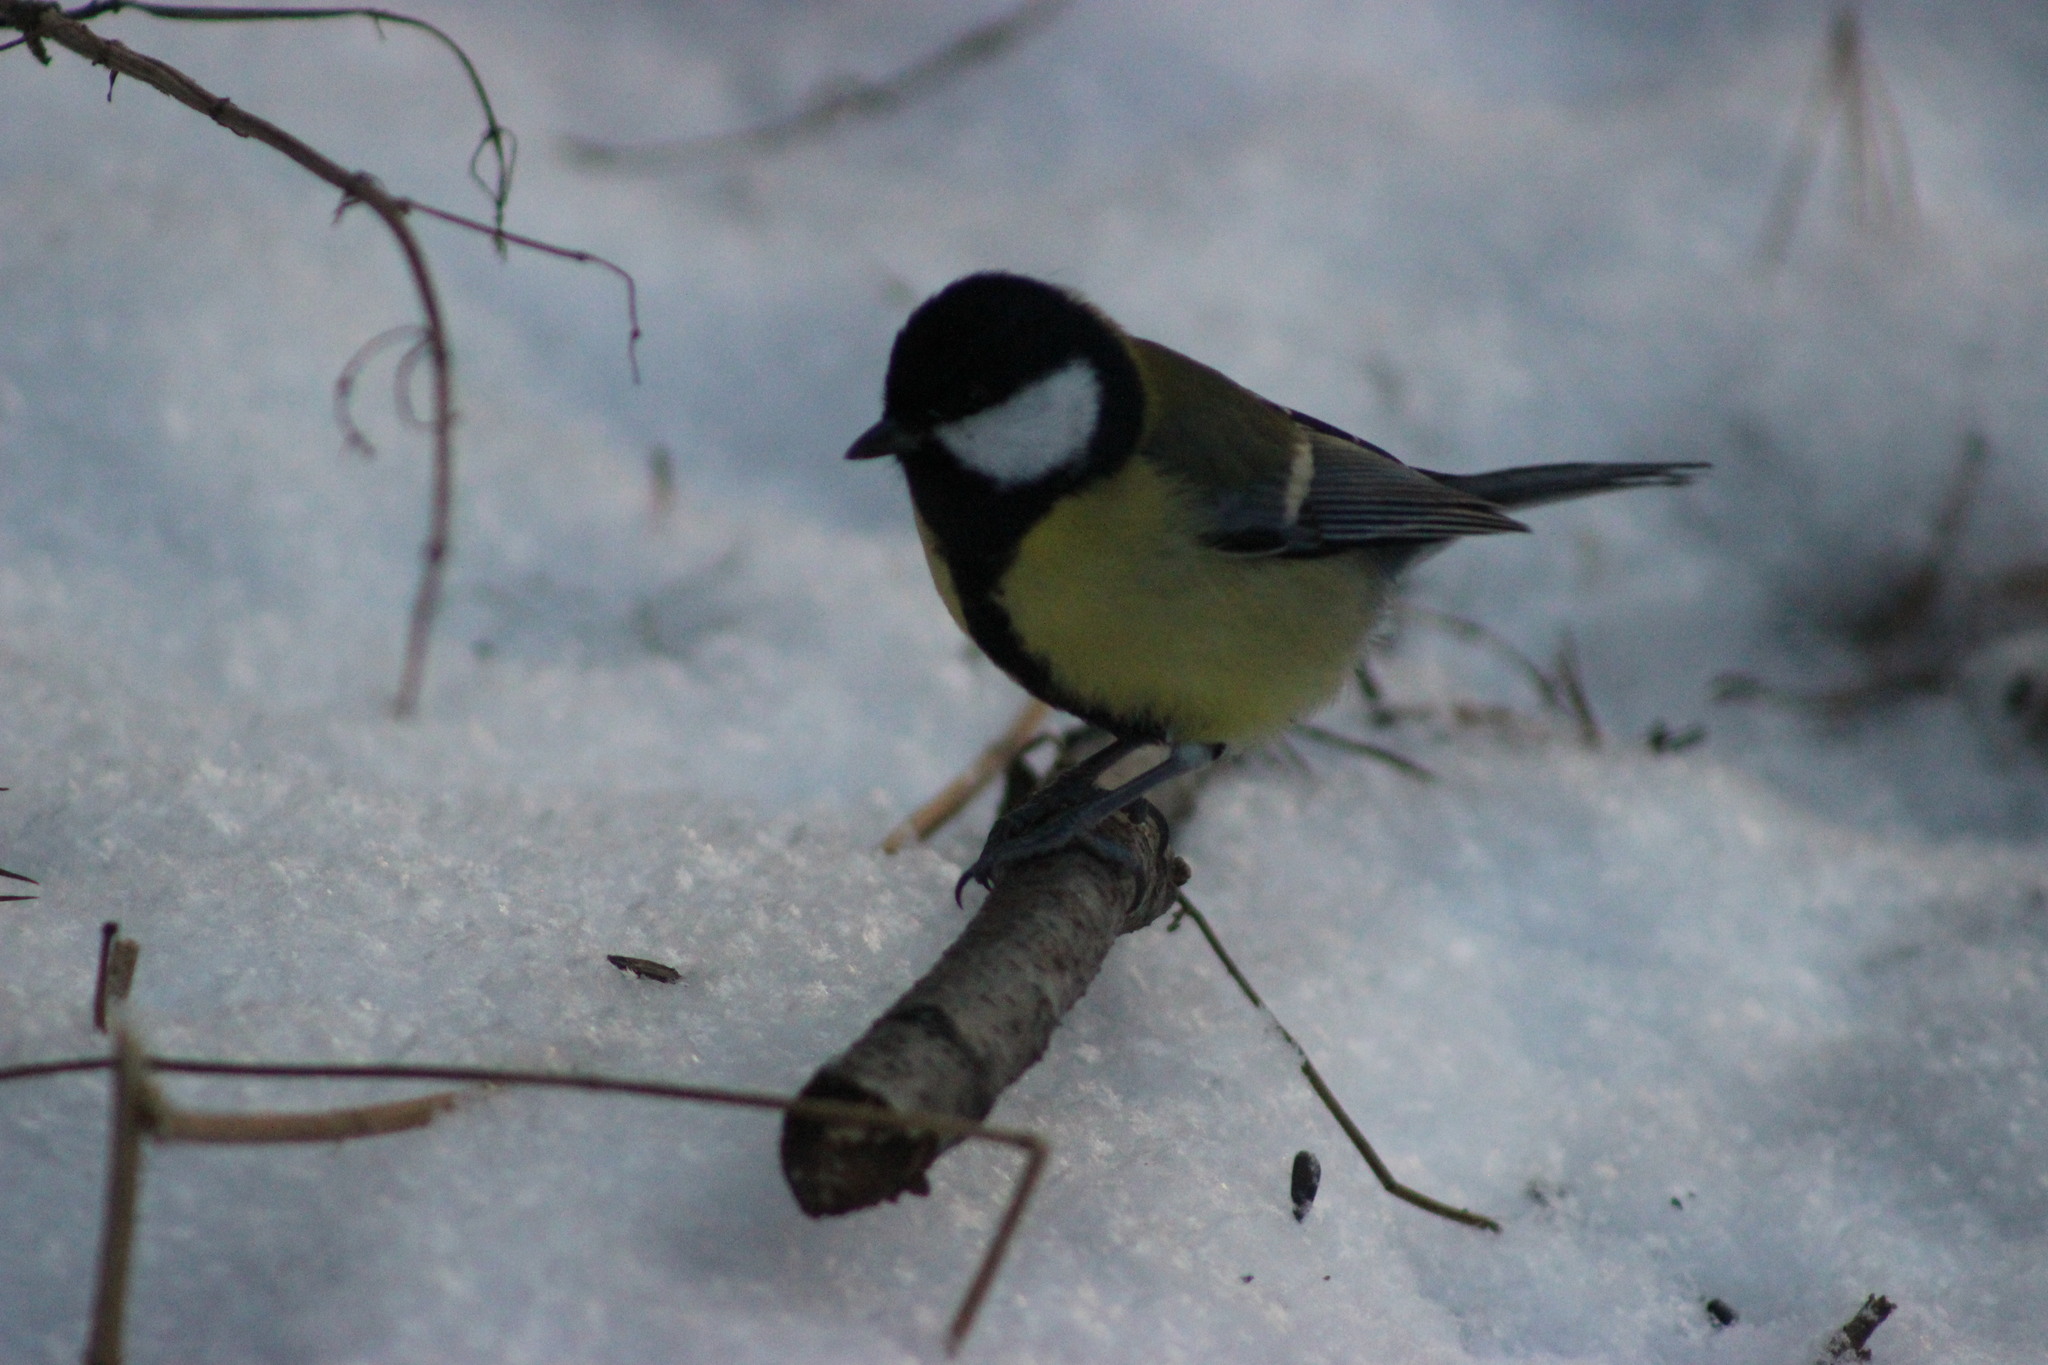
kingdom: Animalia
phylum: Chordata
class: Aves
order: Passeriformes
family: Paridae
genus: Parus
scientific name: Parus major
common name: Great tit
